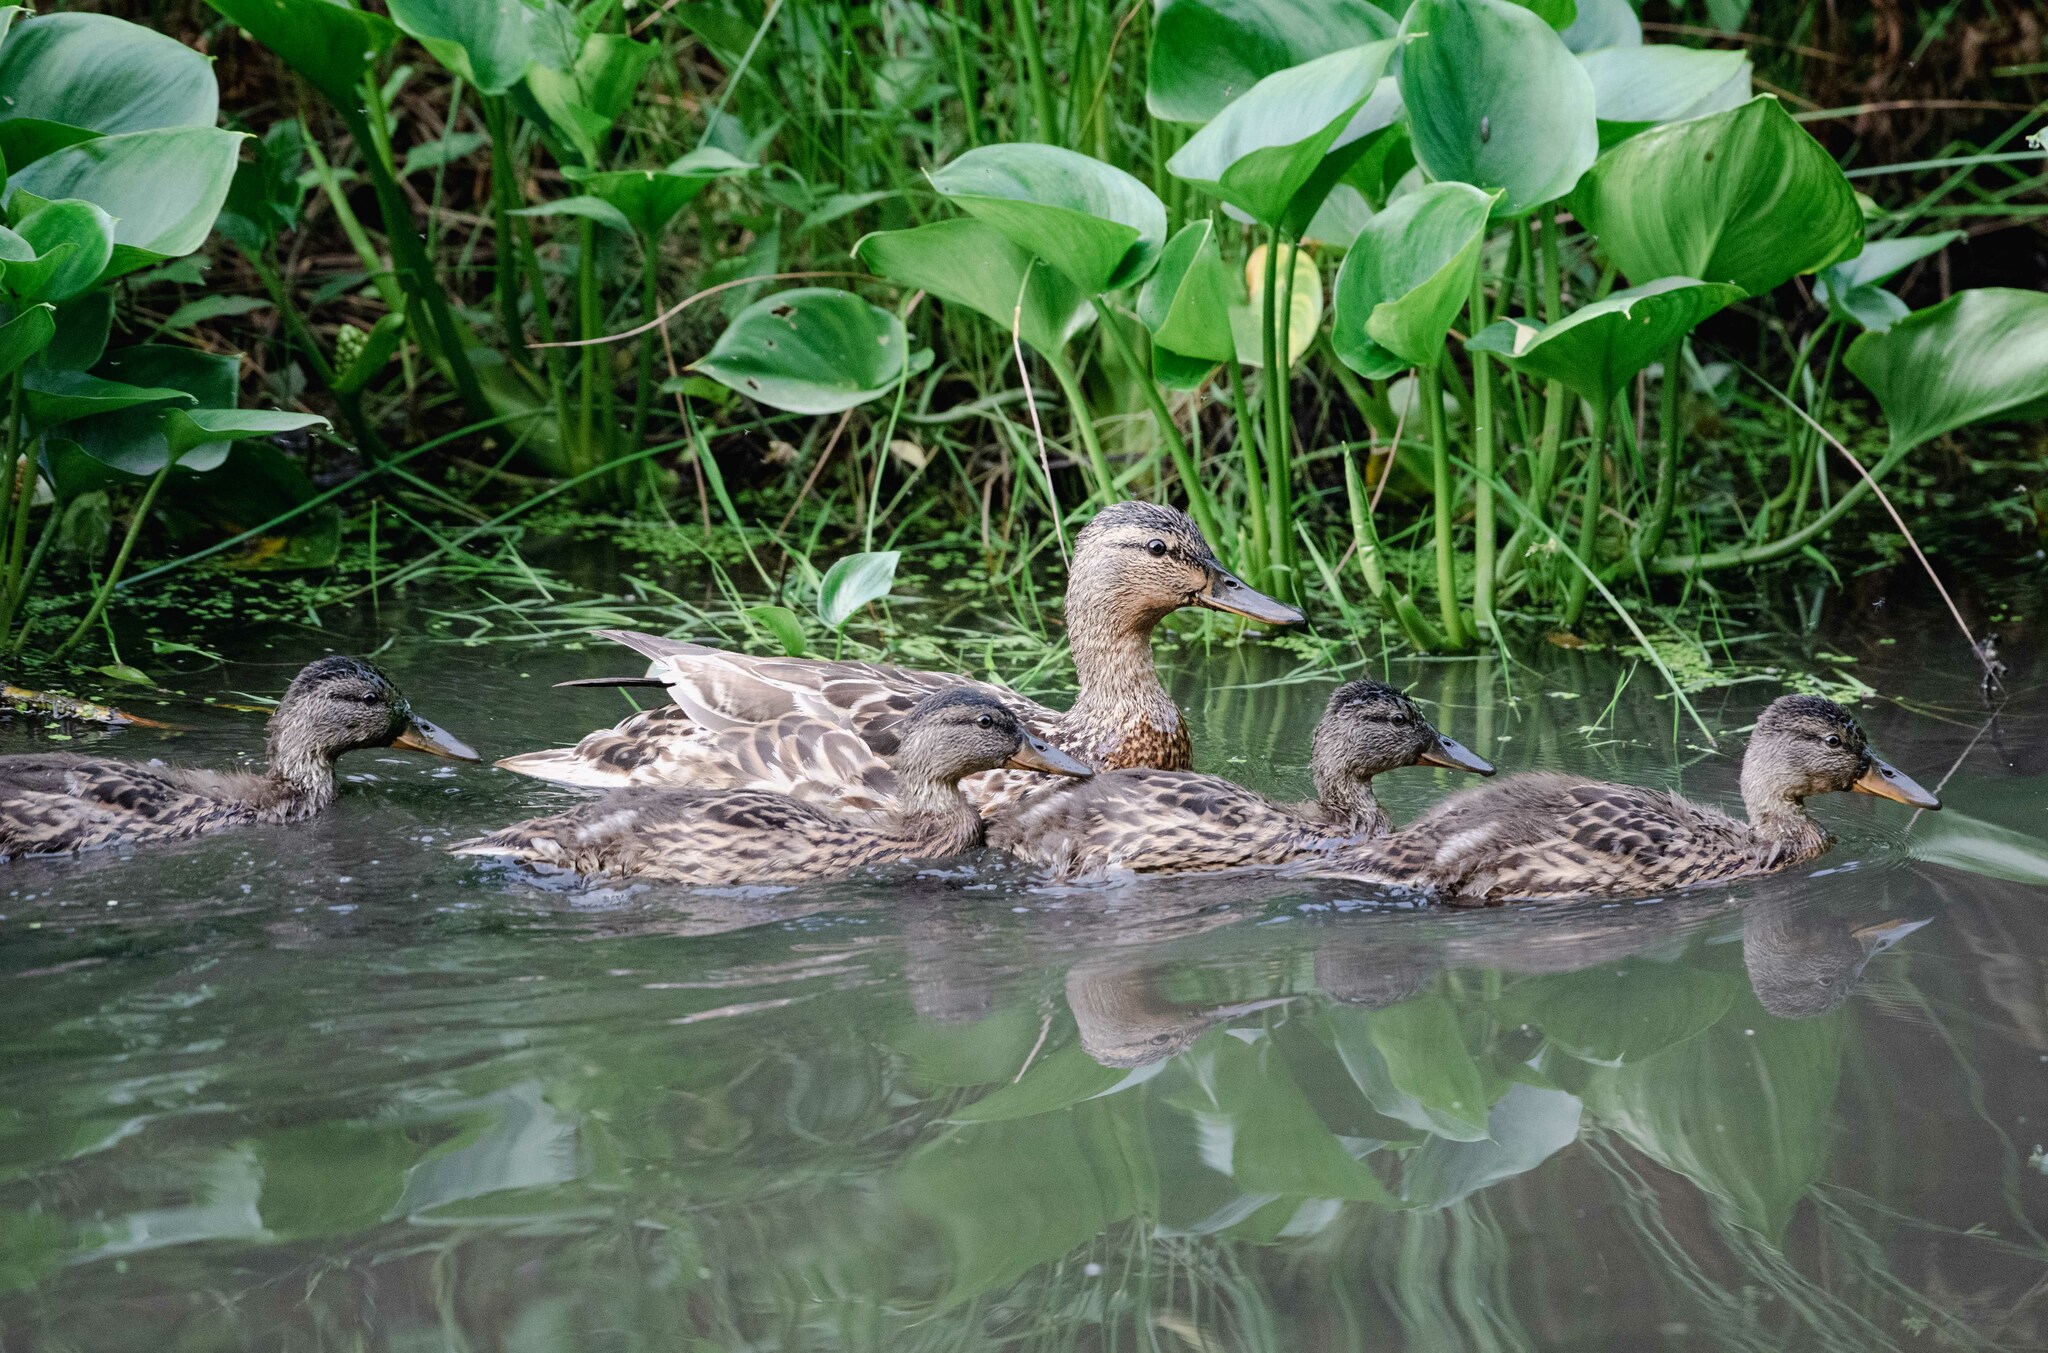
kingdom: Animalia
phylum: Chordata
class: Aves
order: Anseriformes
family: Anatidae
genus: Anas
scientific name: Anas platyrhynchos
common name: Mallard
